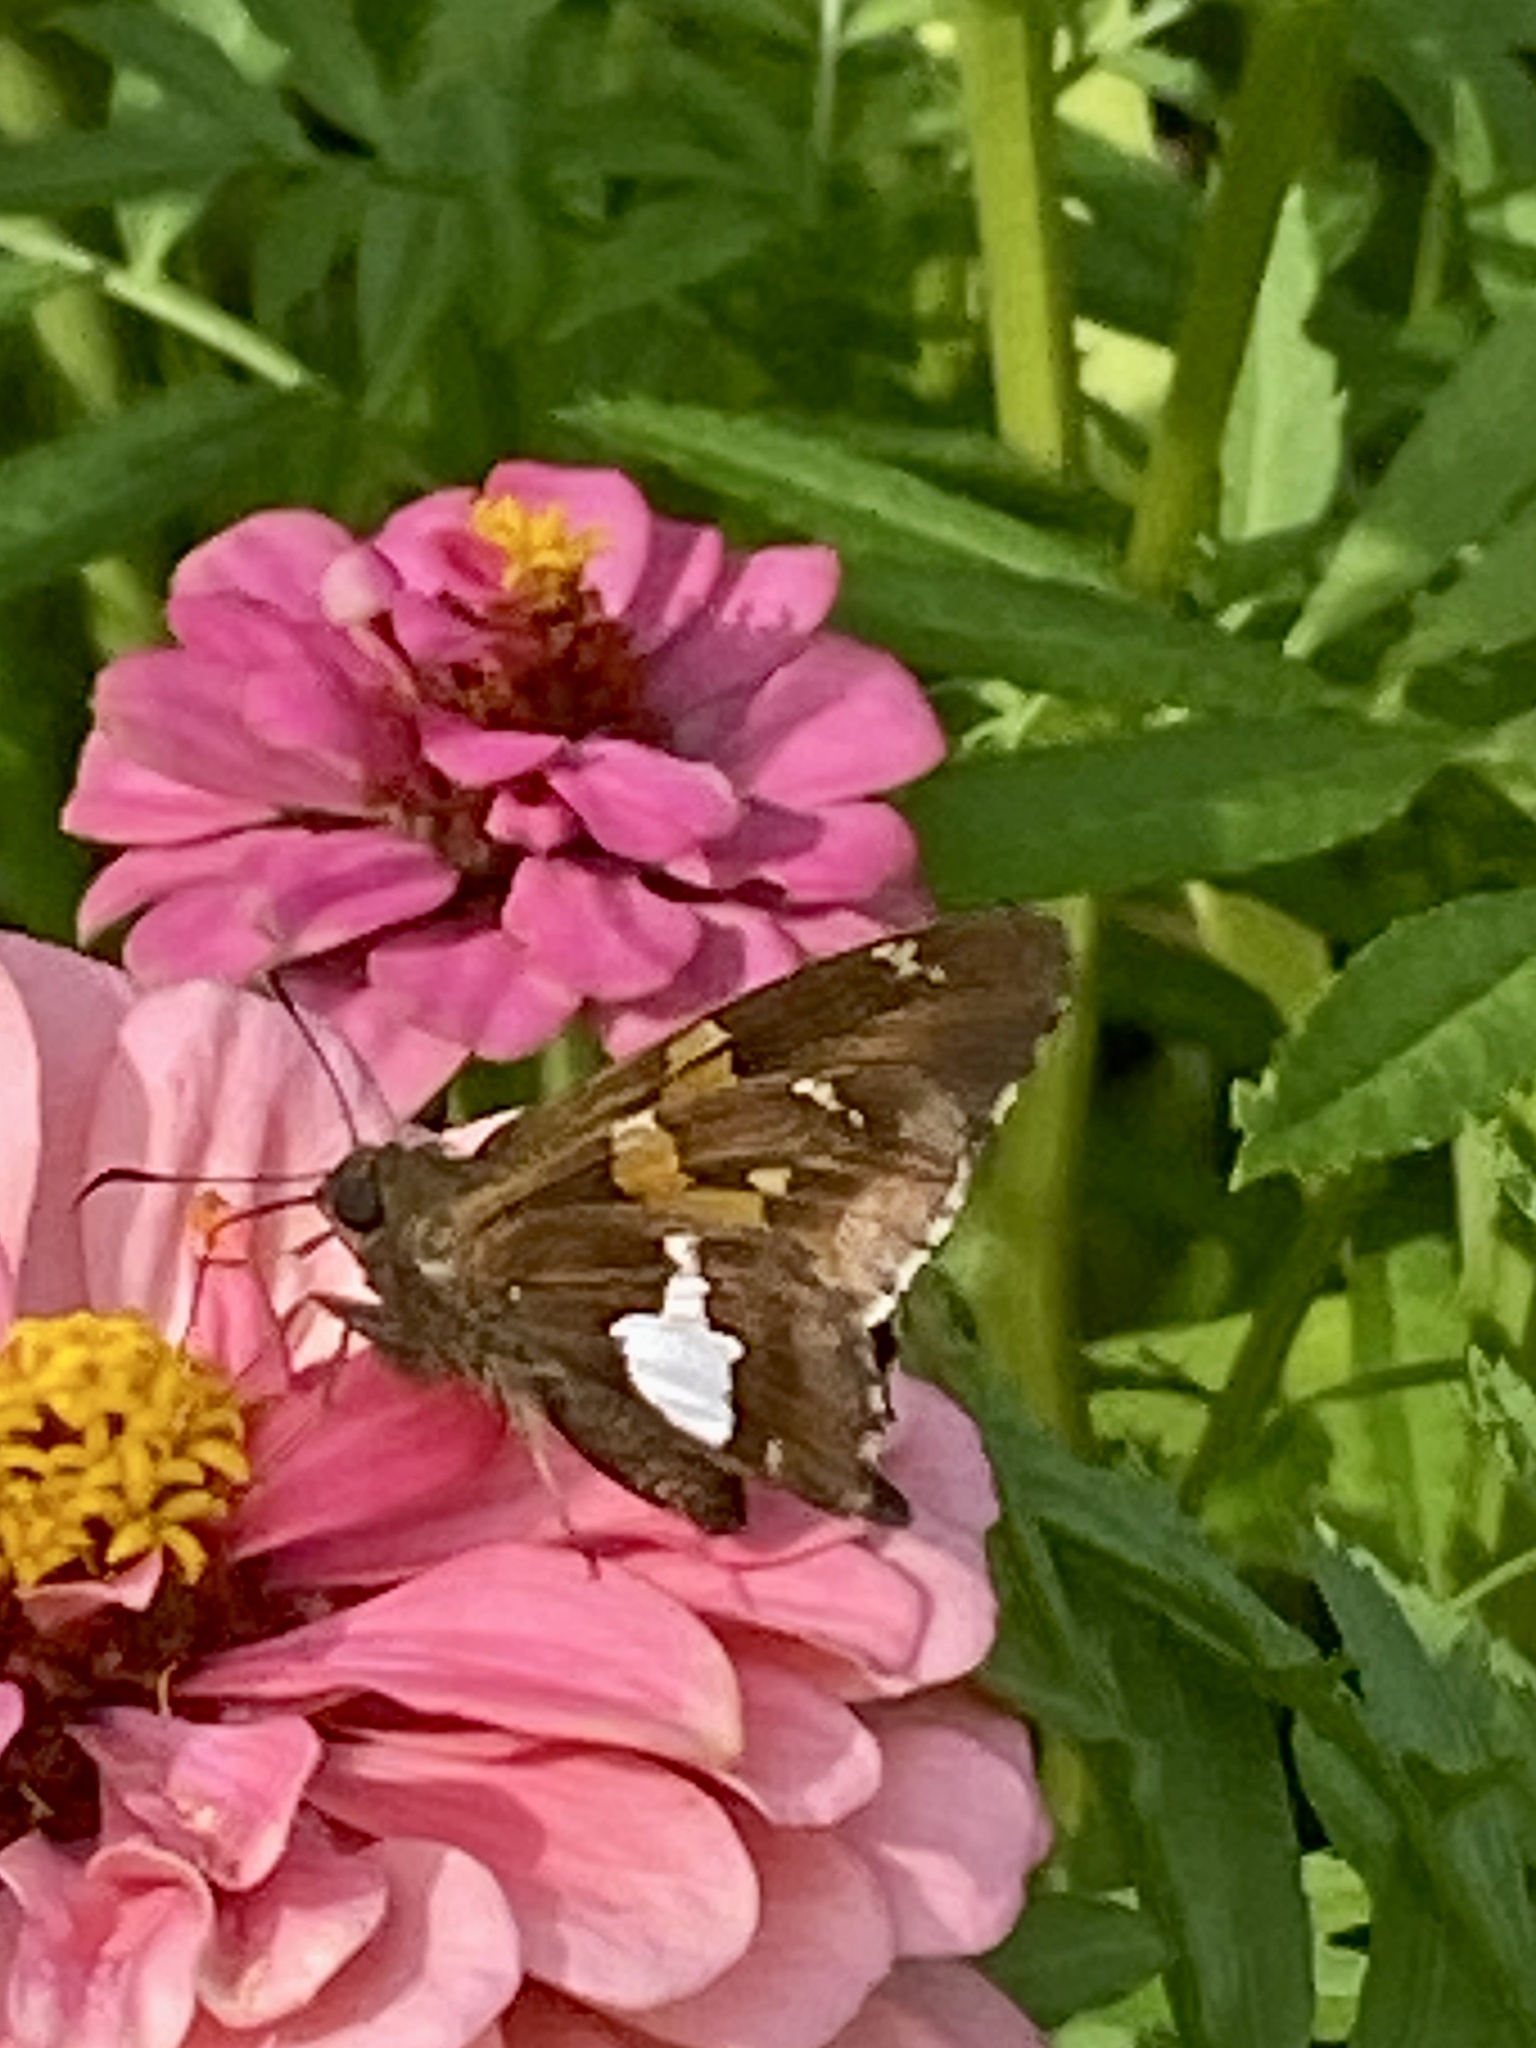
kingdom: Animalia
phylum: Arthropoda
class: Insecta
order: Lepidoptera
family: Hesperiidae
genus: Epargyreus
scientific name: Epargyreus clarus
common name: Silver-spotted skipper
